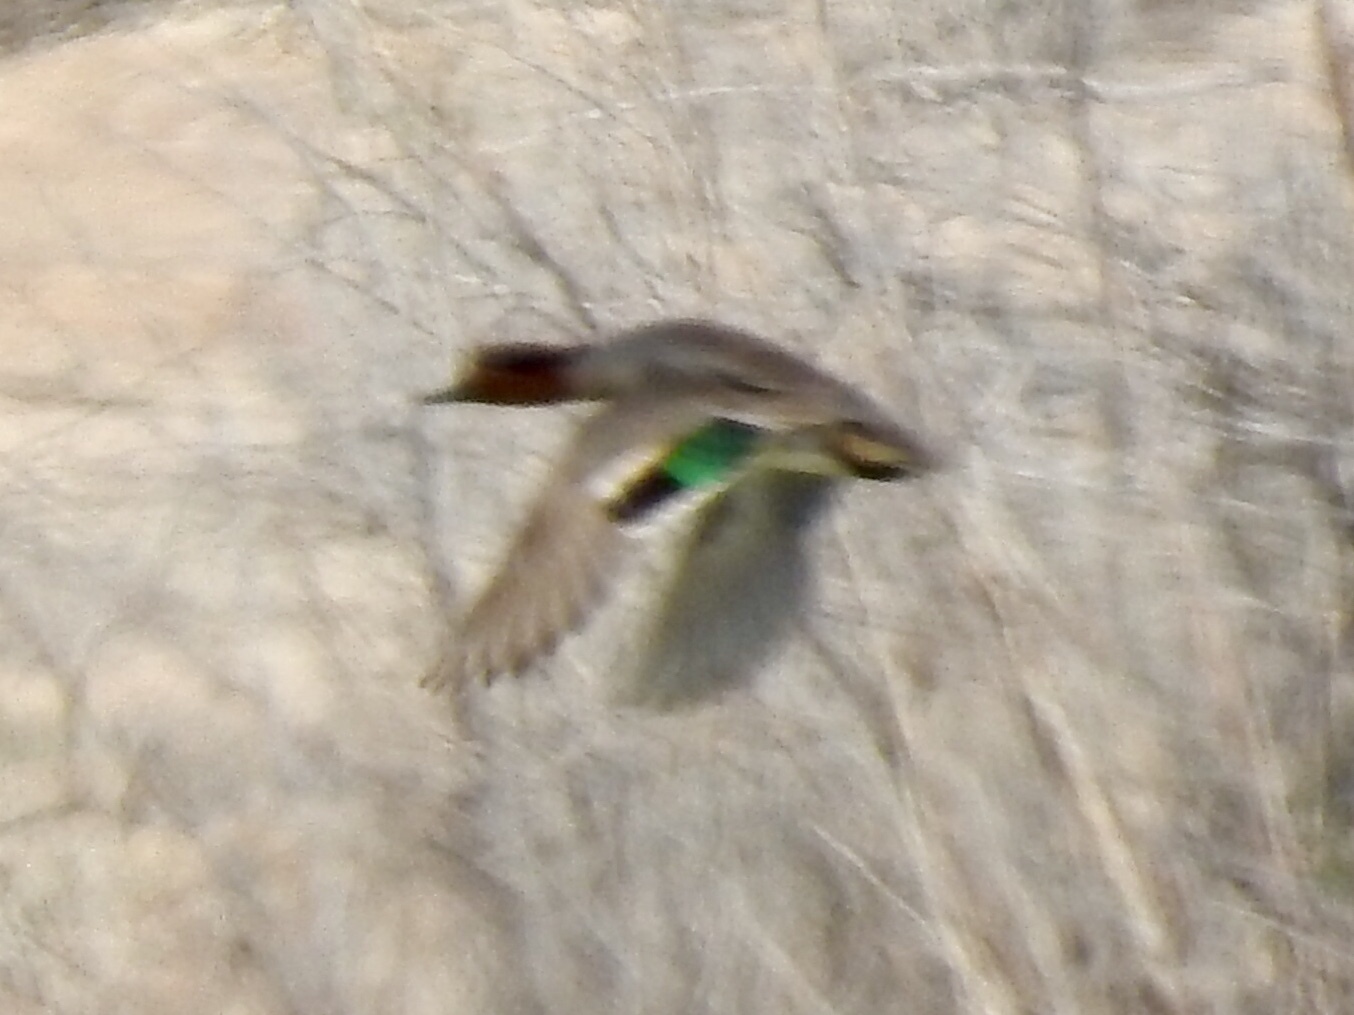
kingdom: Animalia
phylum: Chordata
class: Aves
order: Anseriformes
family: Anatidae
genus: Anas
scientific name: Anas crecca
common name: Eurasian teal
